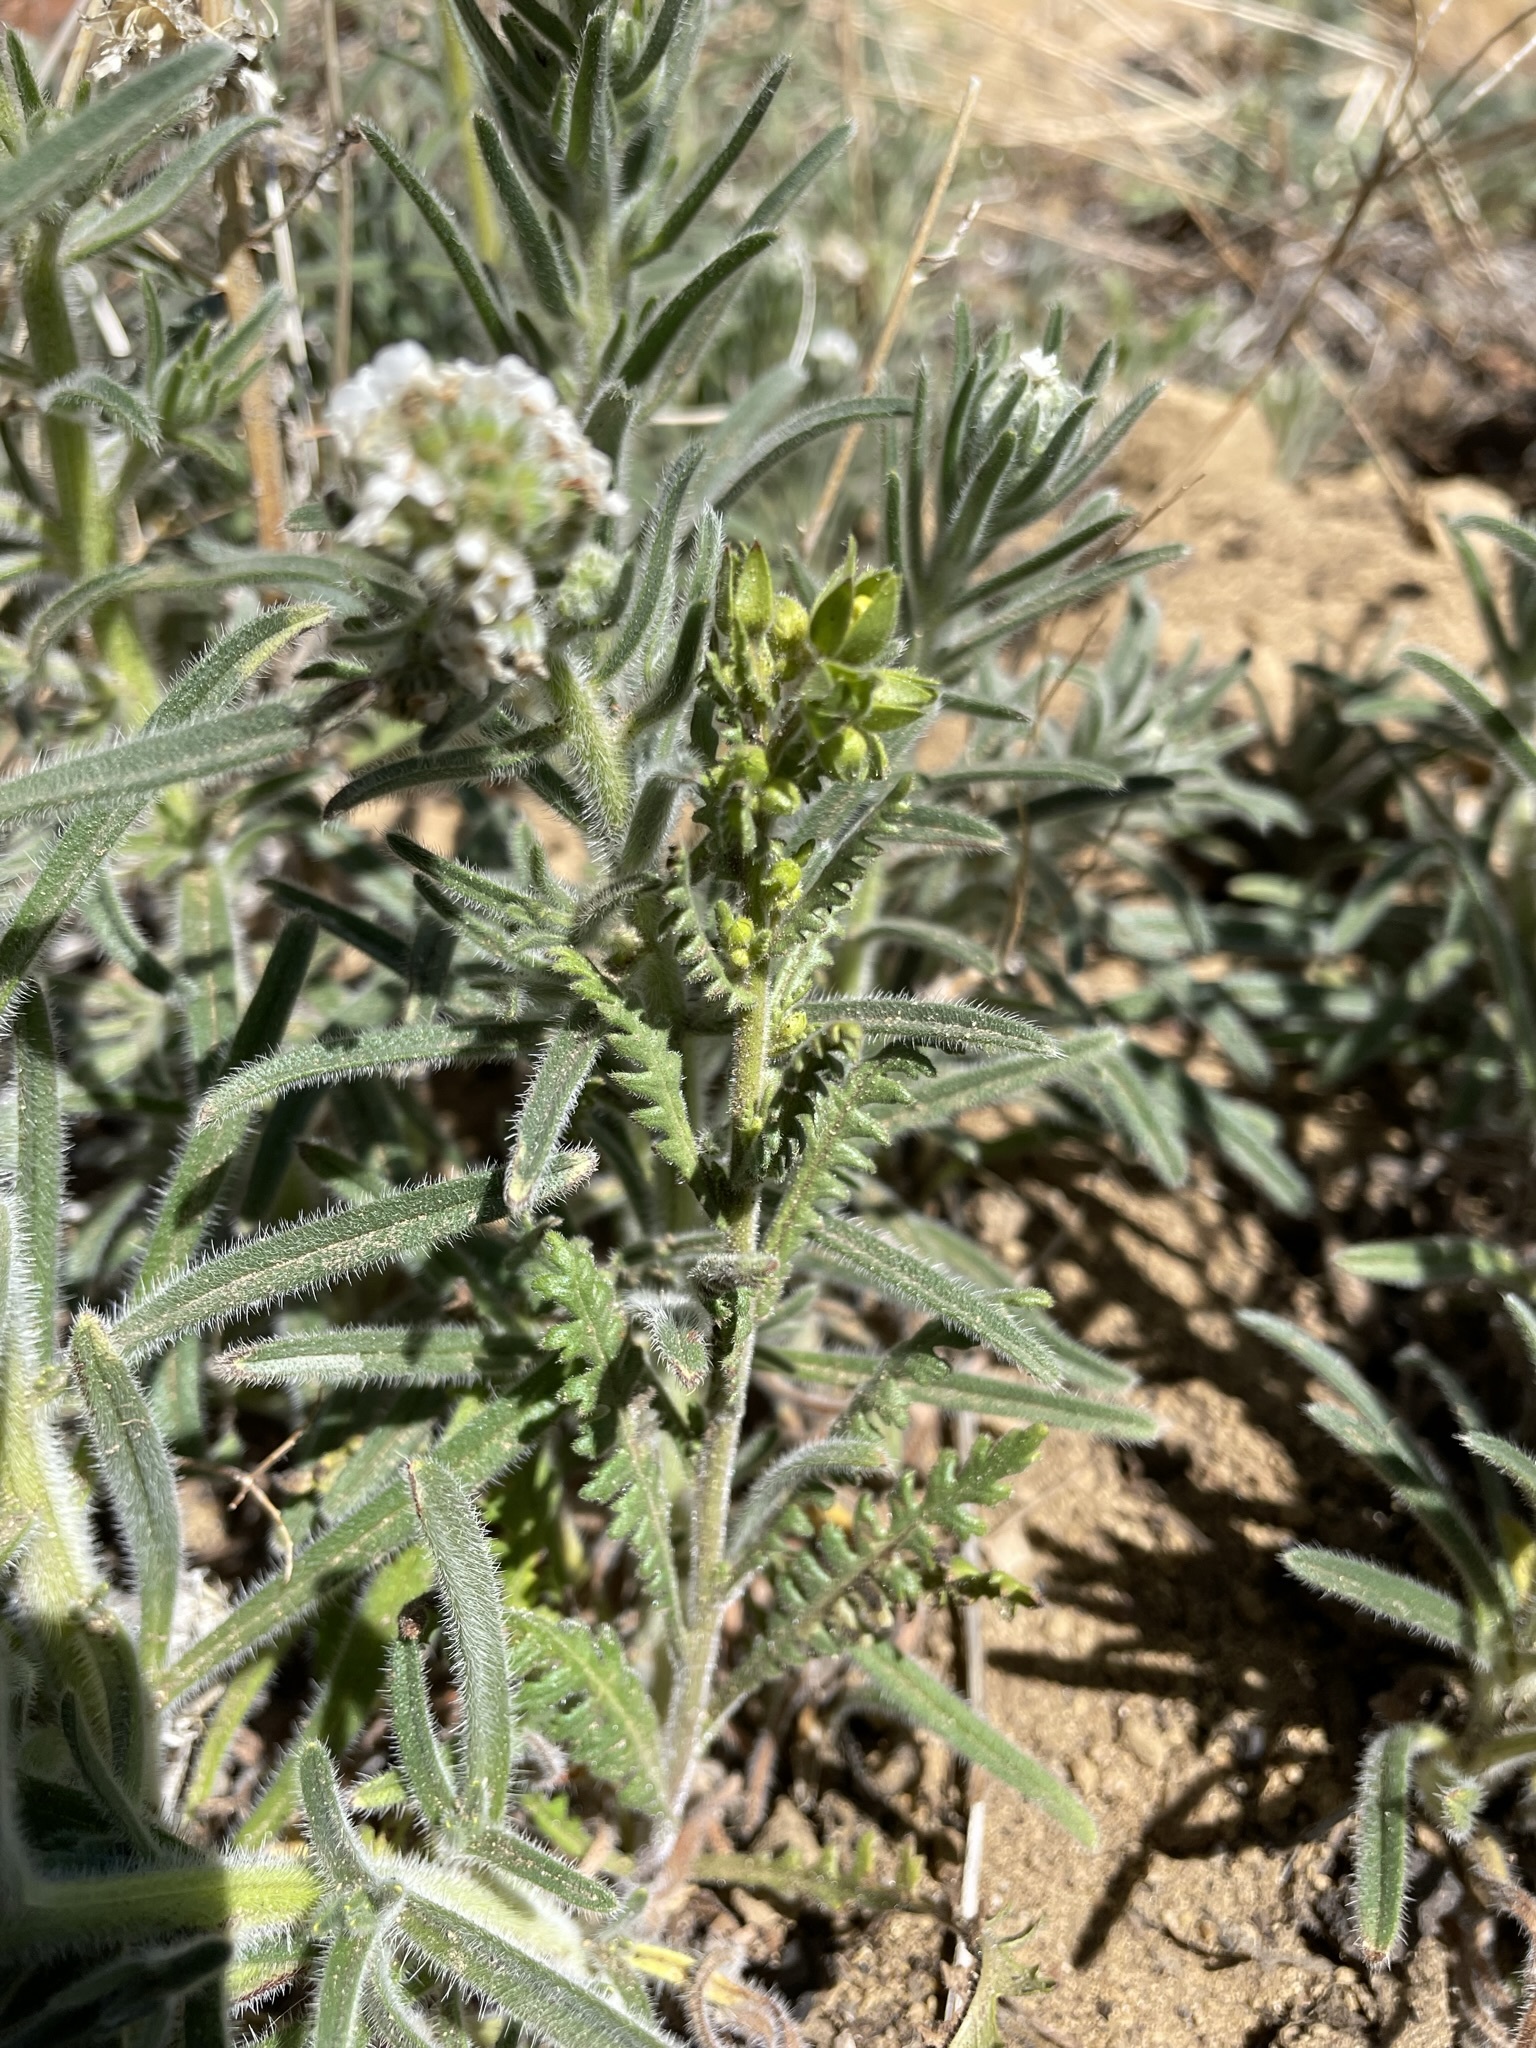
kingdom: Plantae
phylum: Tracheophyta
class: Magnoliopsida
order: Boraginales
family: Hydrophyllaceae
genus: Emmenanthe
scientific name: Emmenanthe penduliflora
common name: Whispering-bells
